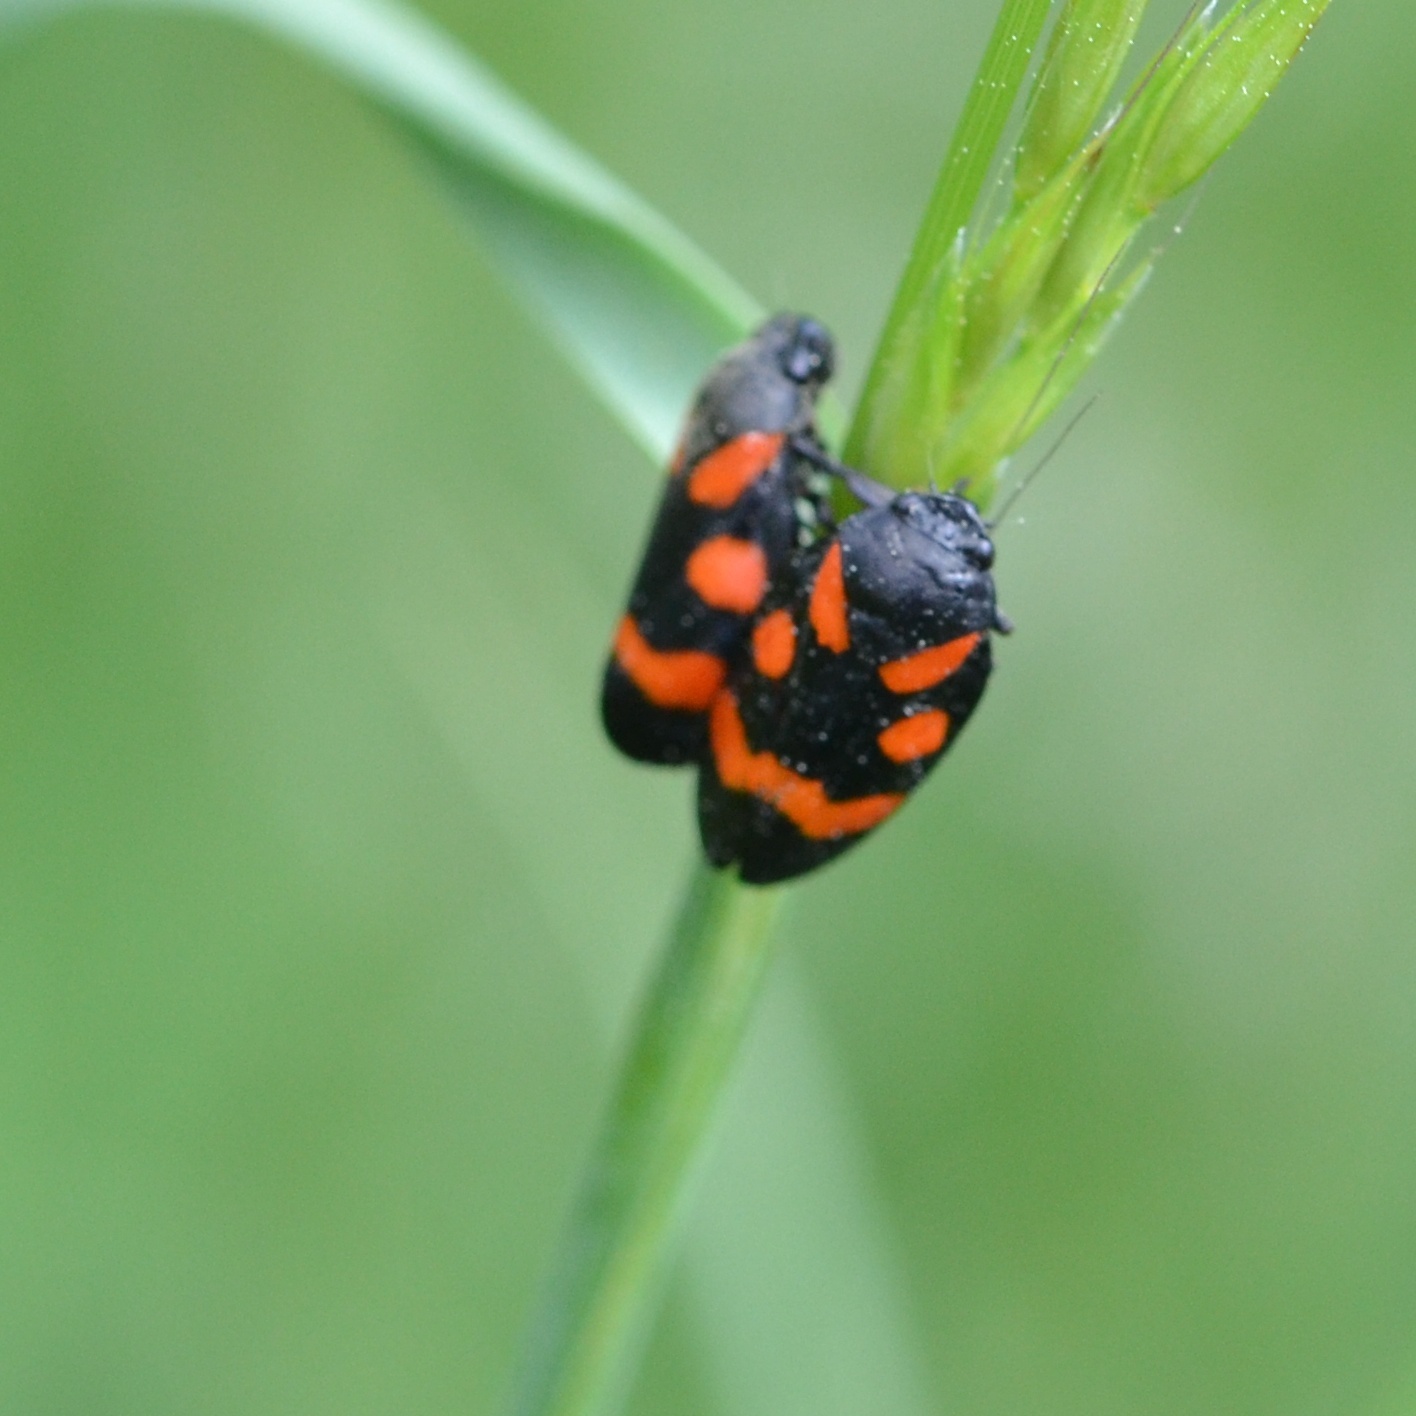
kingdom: Animalia
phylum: Arthropoda
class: Insecta
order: Hemiptera
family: Cercopidae
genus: Cercopis
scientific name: Cercopis sanguinolenta
